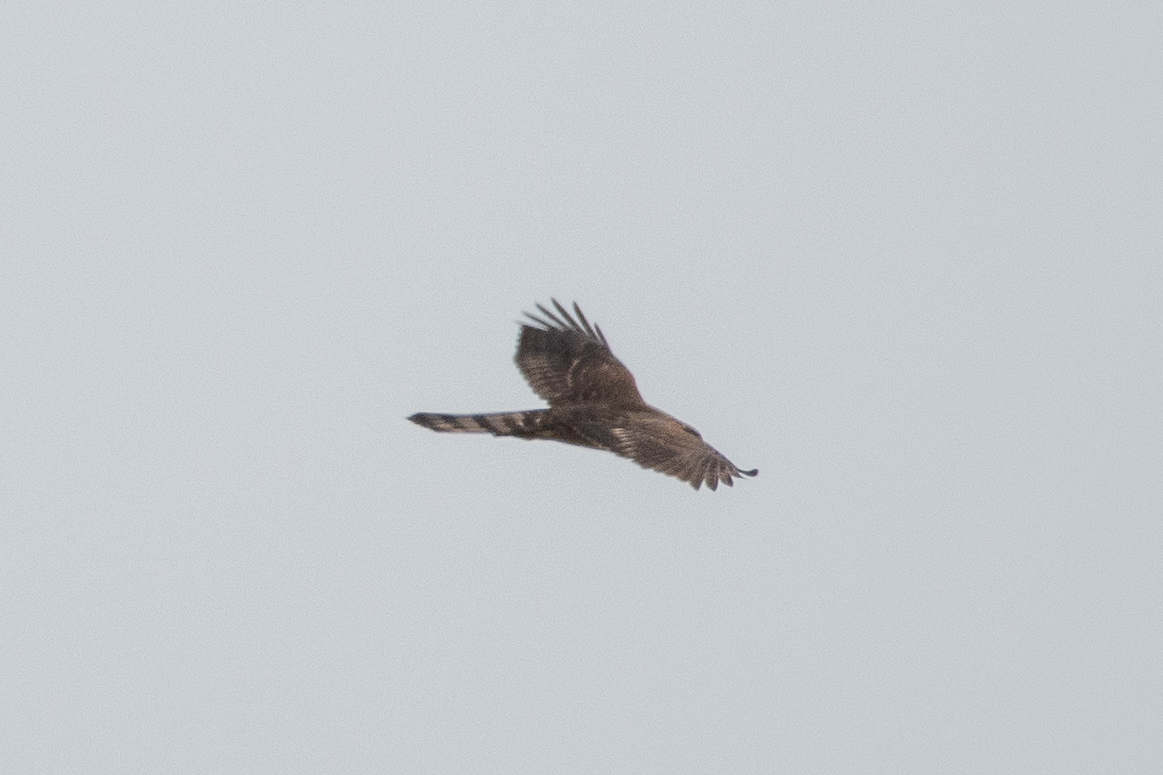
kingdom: Animalia
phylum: Chordata
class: Aves
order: Accipitriformes
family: Accipitridae
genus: Accipiter
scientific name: Accipiter cooperii
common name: Cooper's hawk
